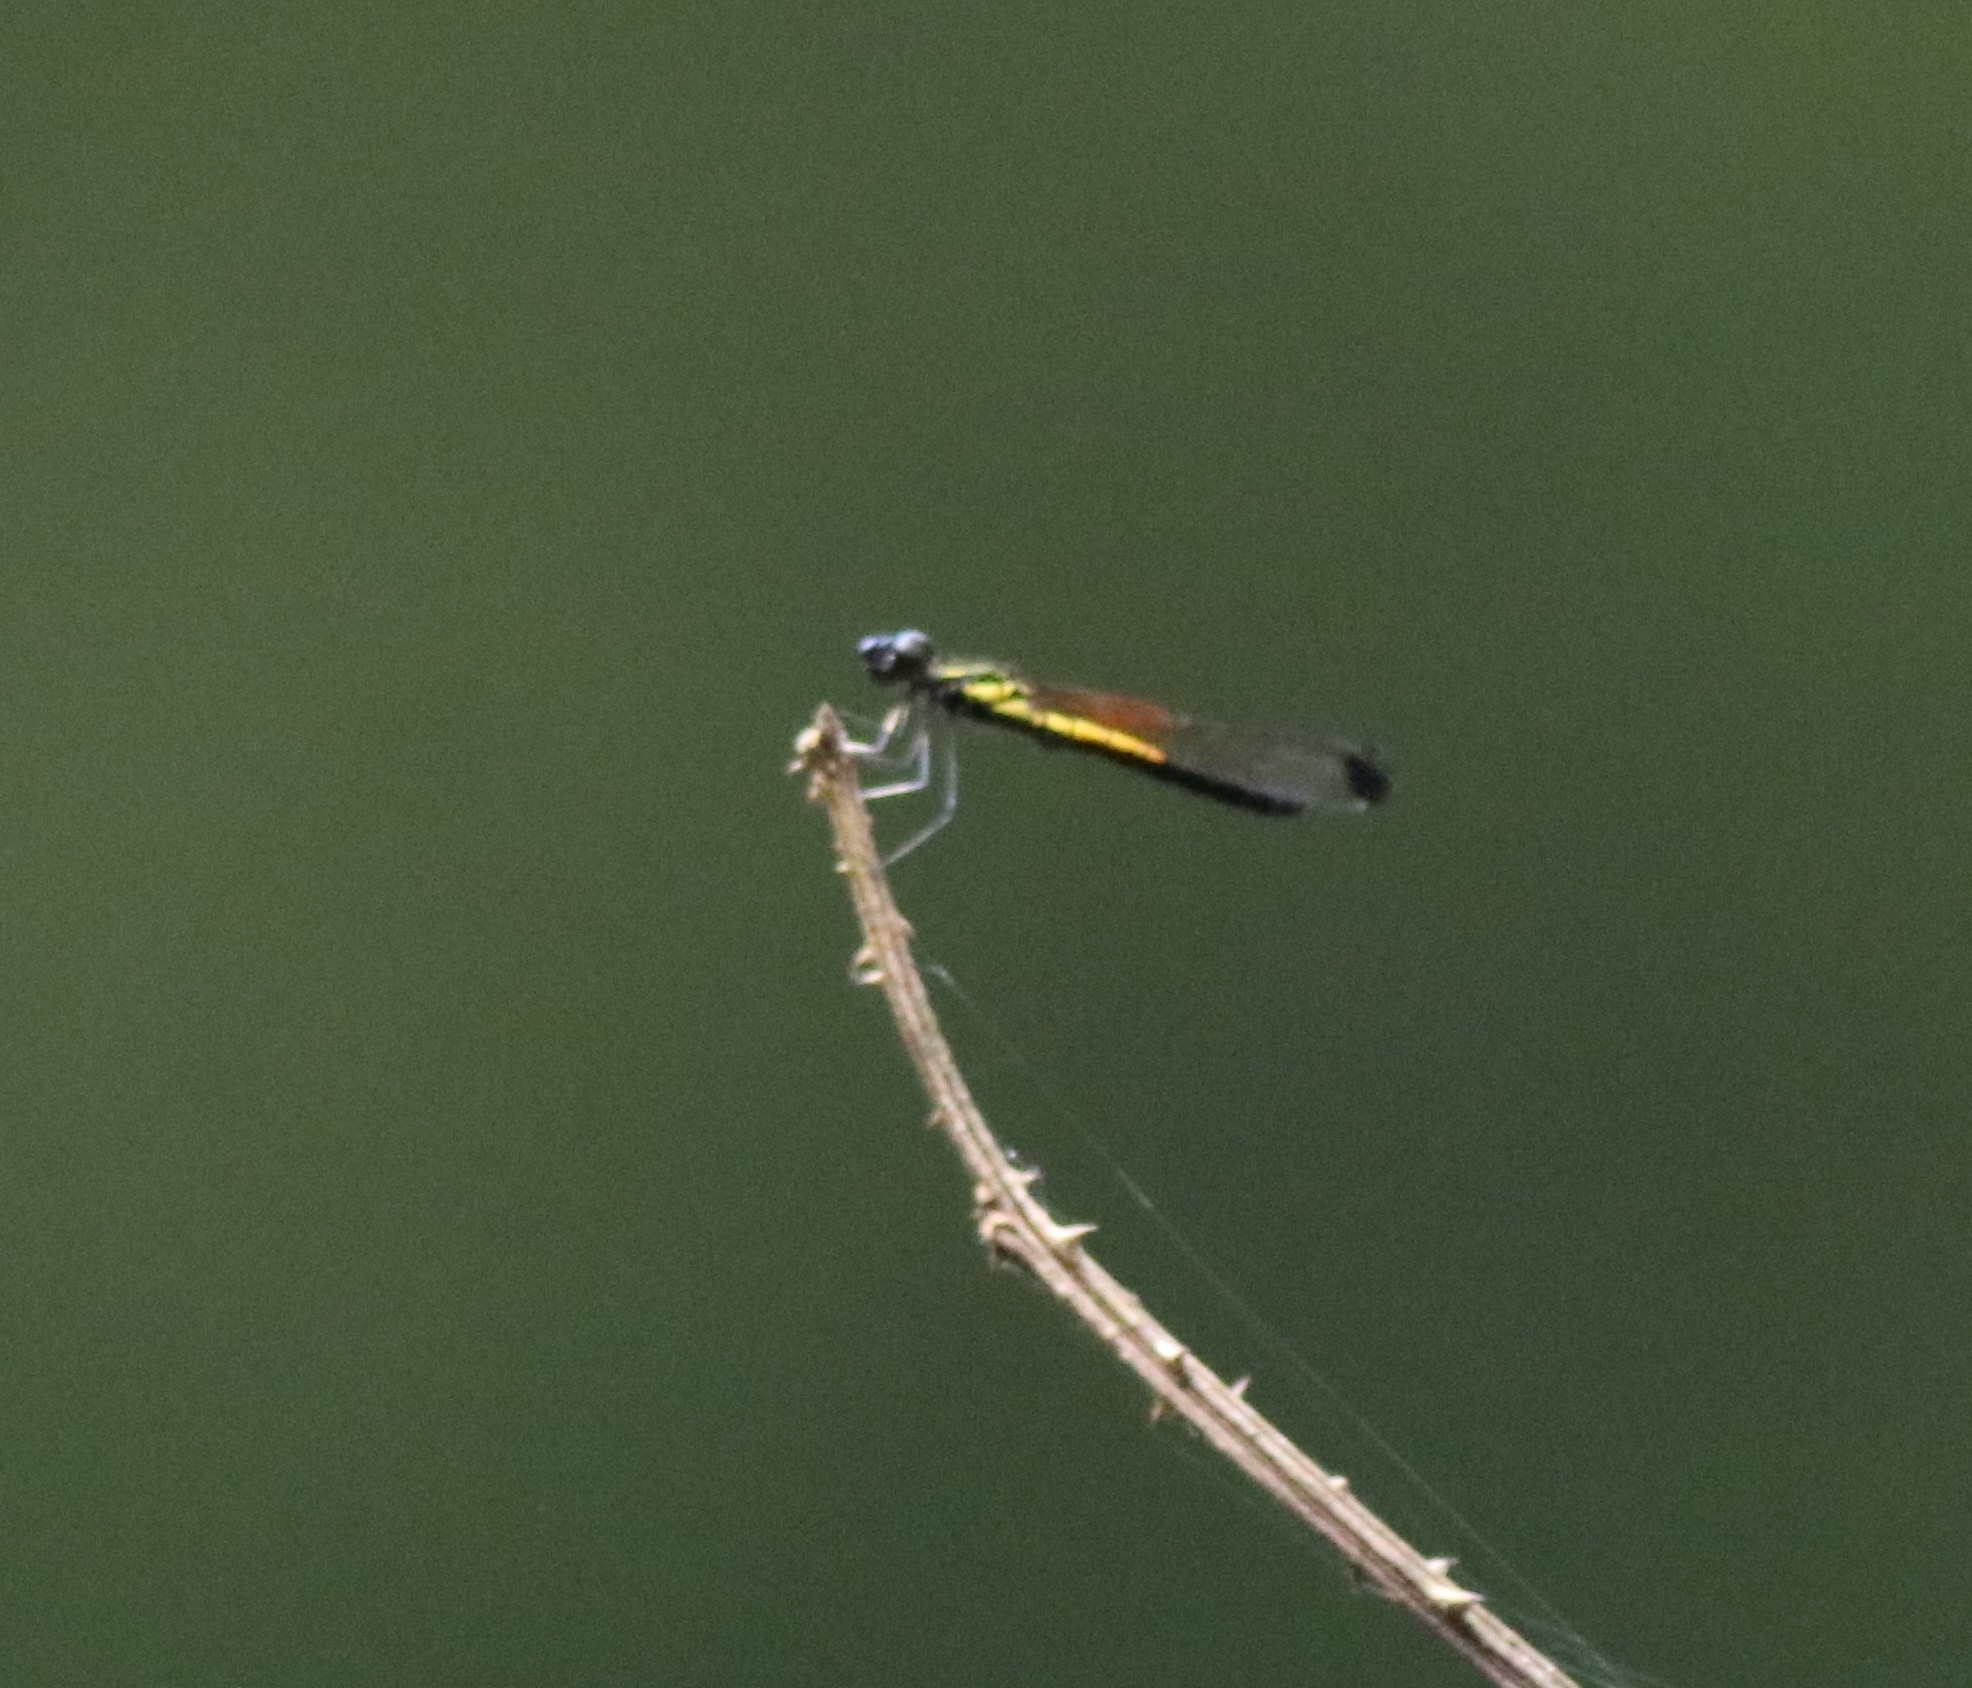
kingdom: Animalia
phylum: Arthropoda
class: Insecta
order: Odonata
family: Chlorocyphidae
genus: Libellago
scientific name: Libellago indica
